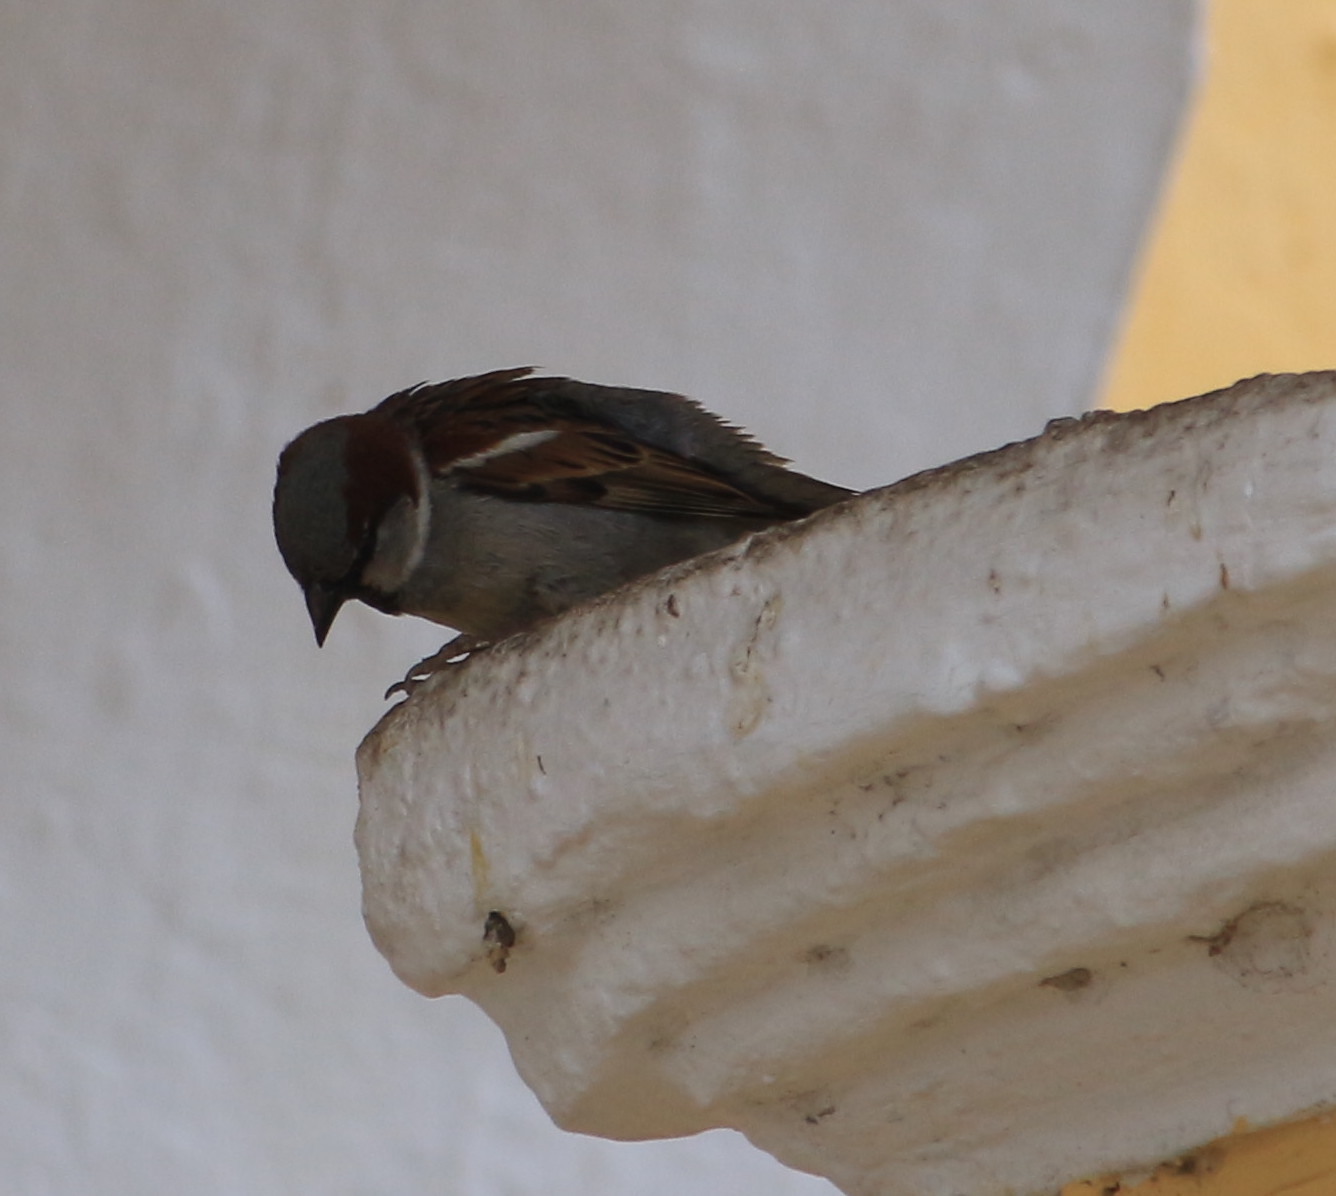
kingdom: Animalia
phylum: Chordata
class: Aves
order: Passeriformes
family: Passeridae
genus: Passer
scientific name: Passer domesticus
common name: House sparrow
